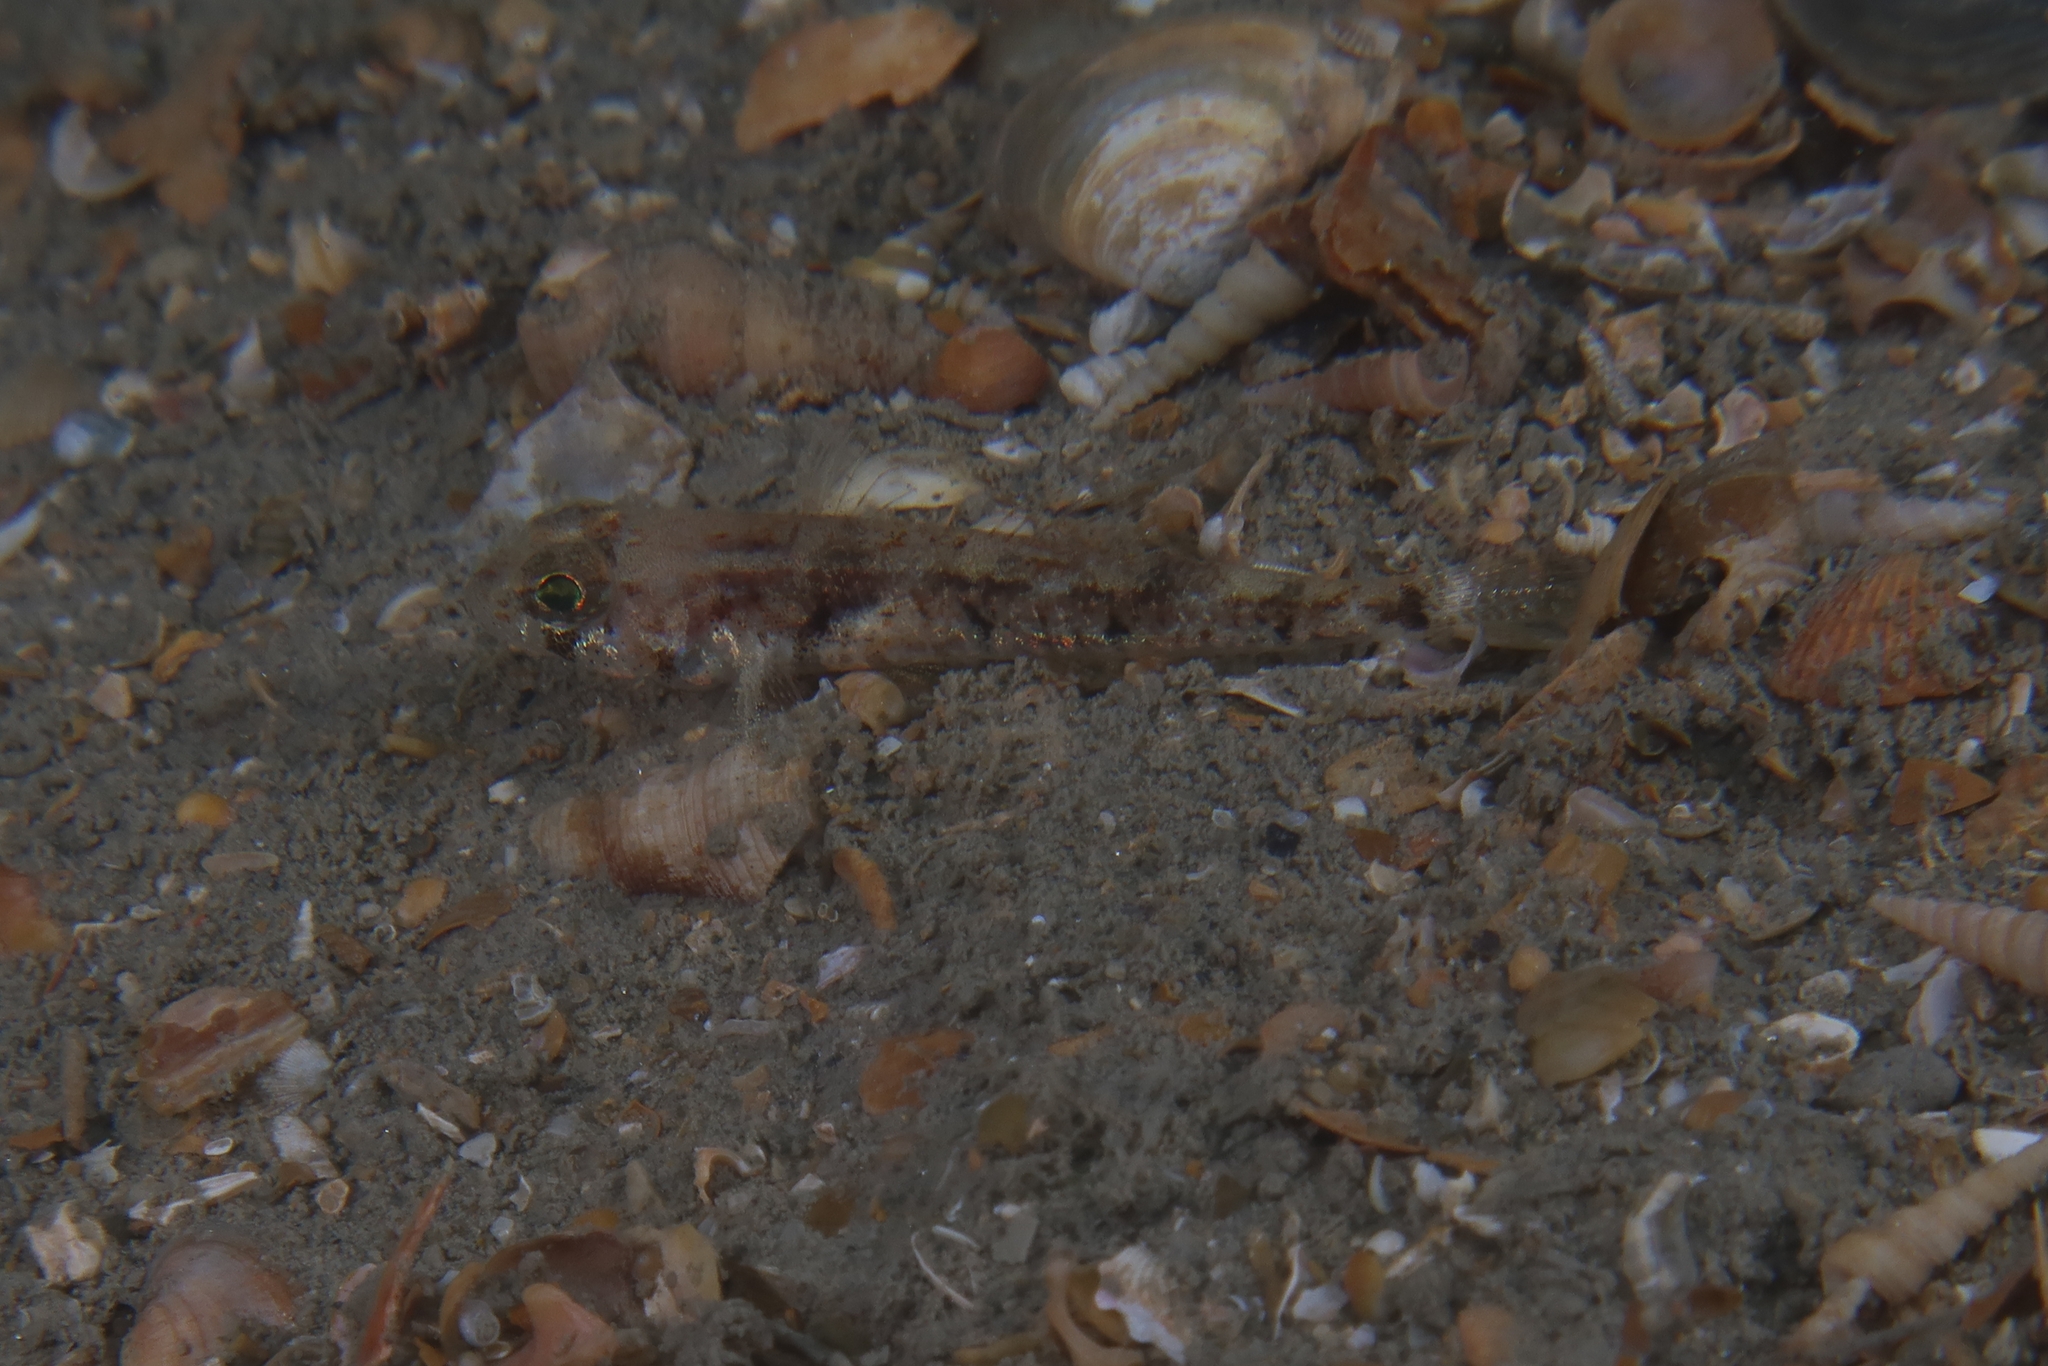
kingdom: Animalia
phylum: Chordata
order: Perciformes
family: Gobiidae
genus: Buenia
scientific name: Buenia massutii
